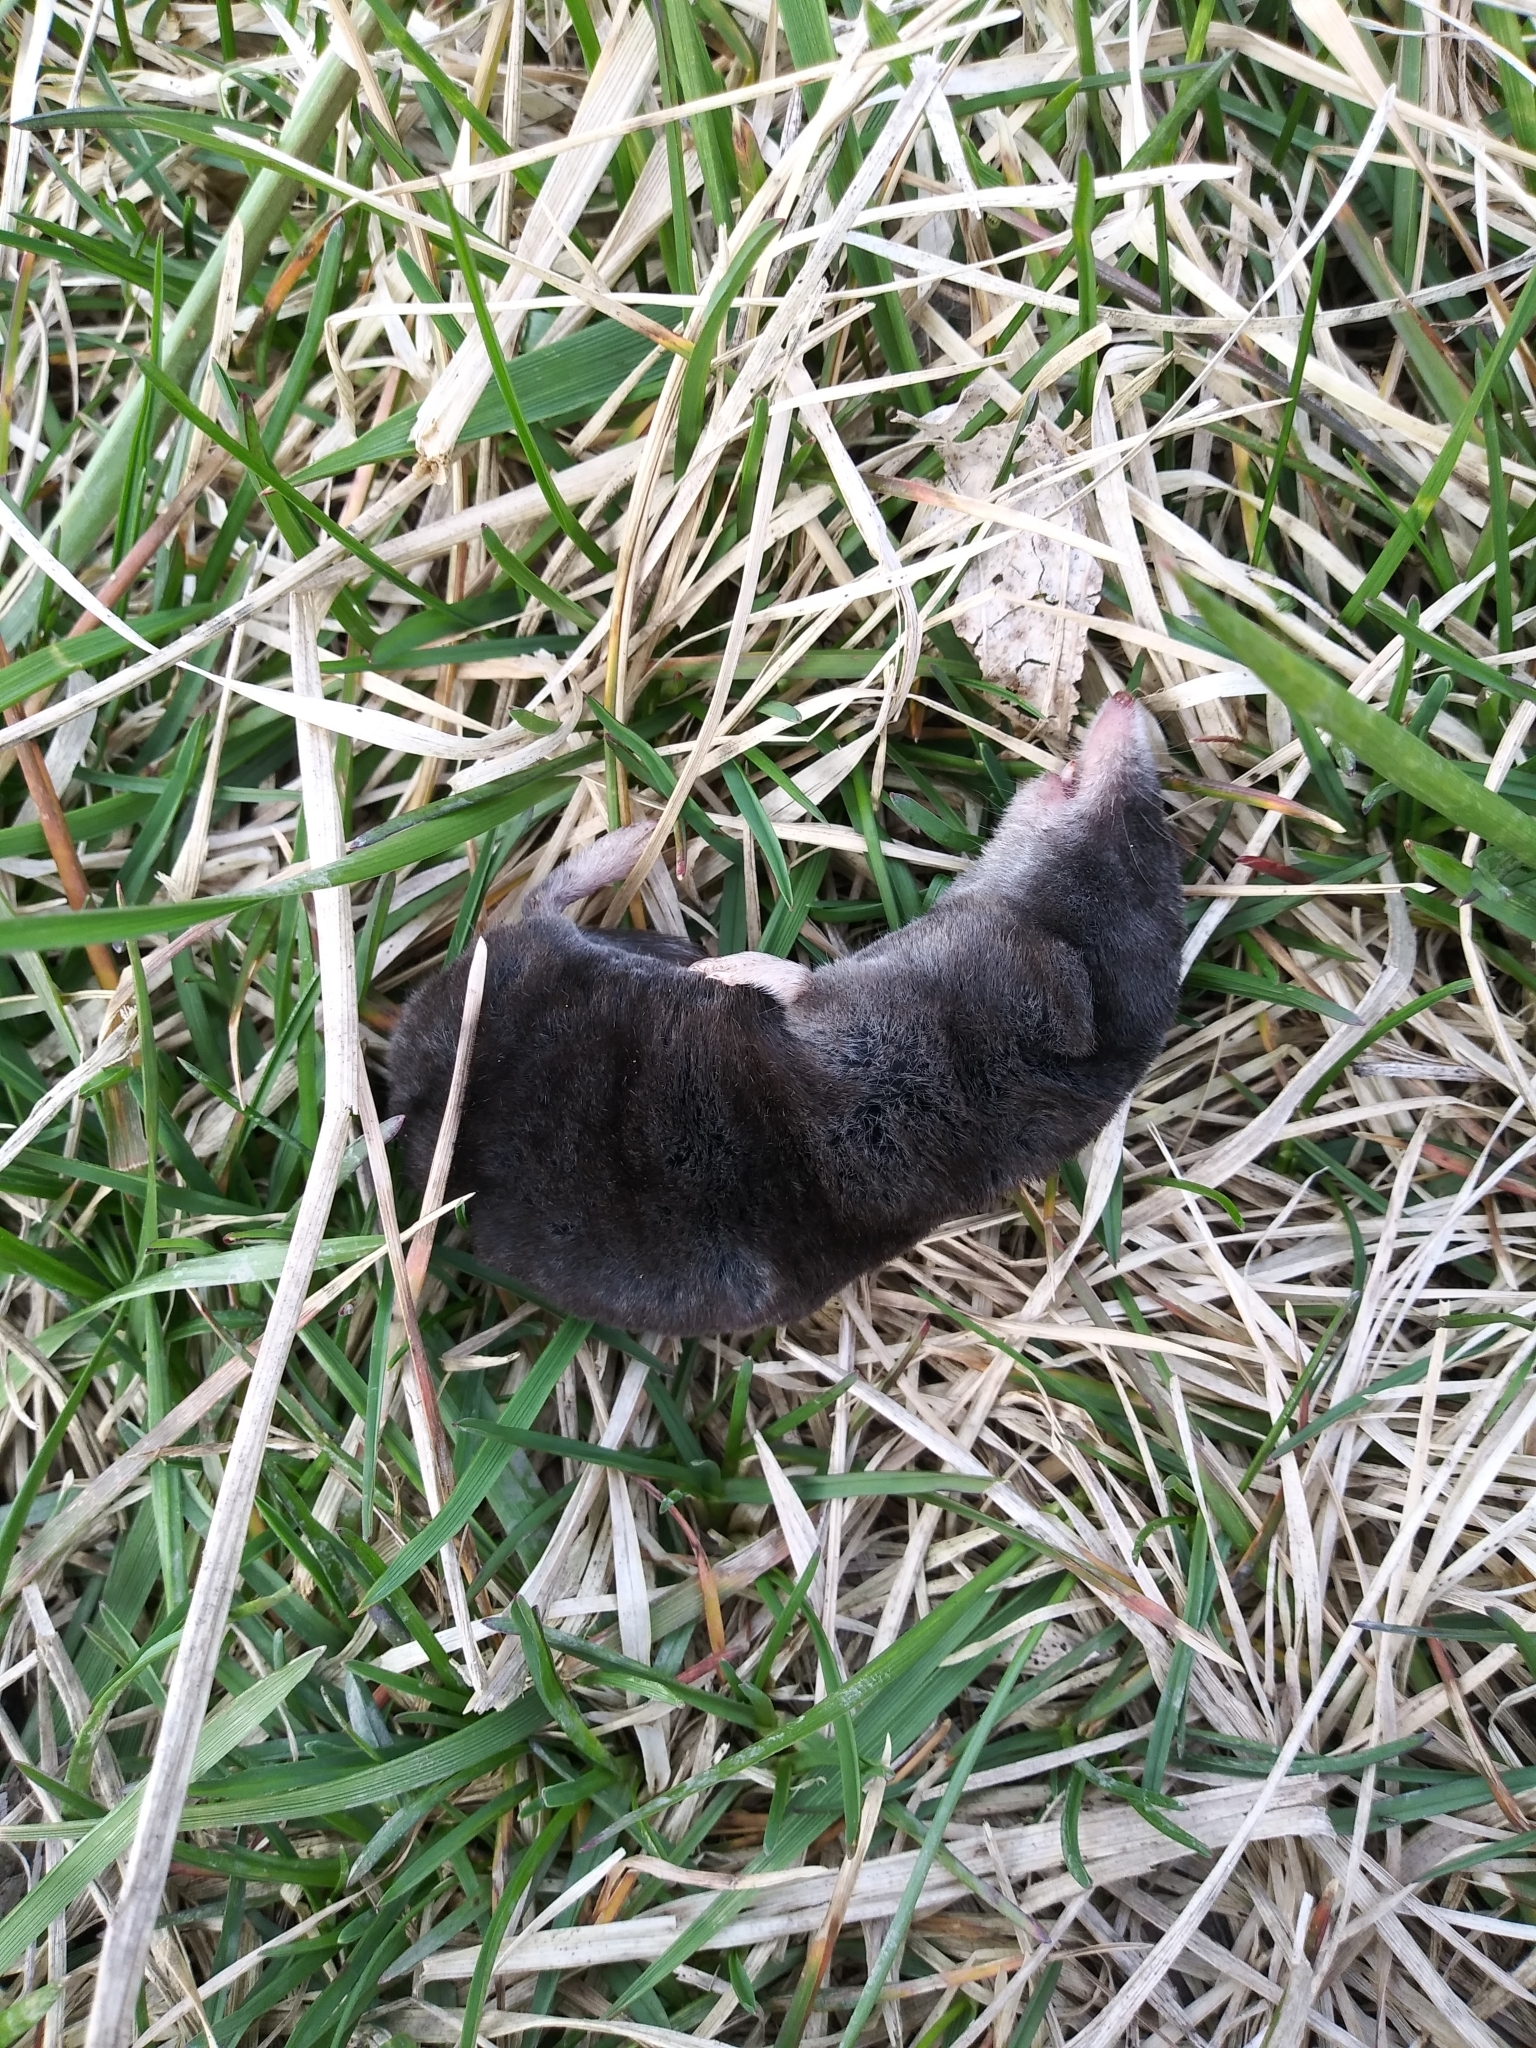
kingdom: Animalia
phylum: Chordata
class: Mammalia
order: Soricomorpha
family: Soricidae
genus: Blarina
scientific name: Blarina brevicauda
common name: Northern short-tailed shrew
